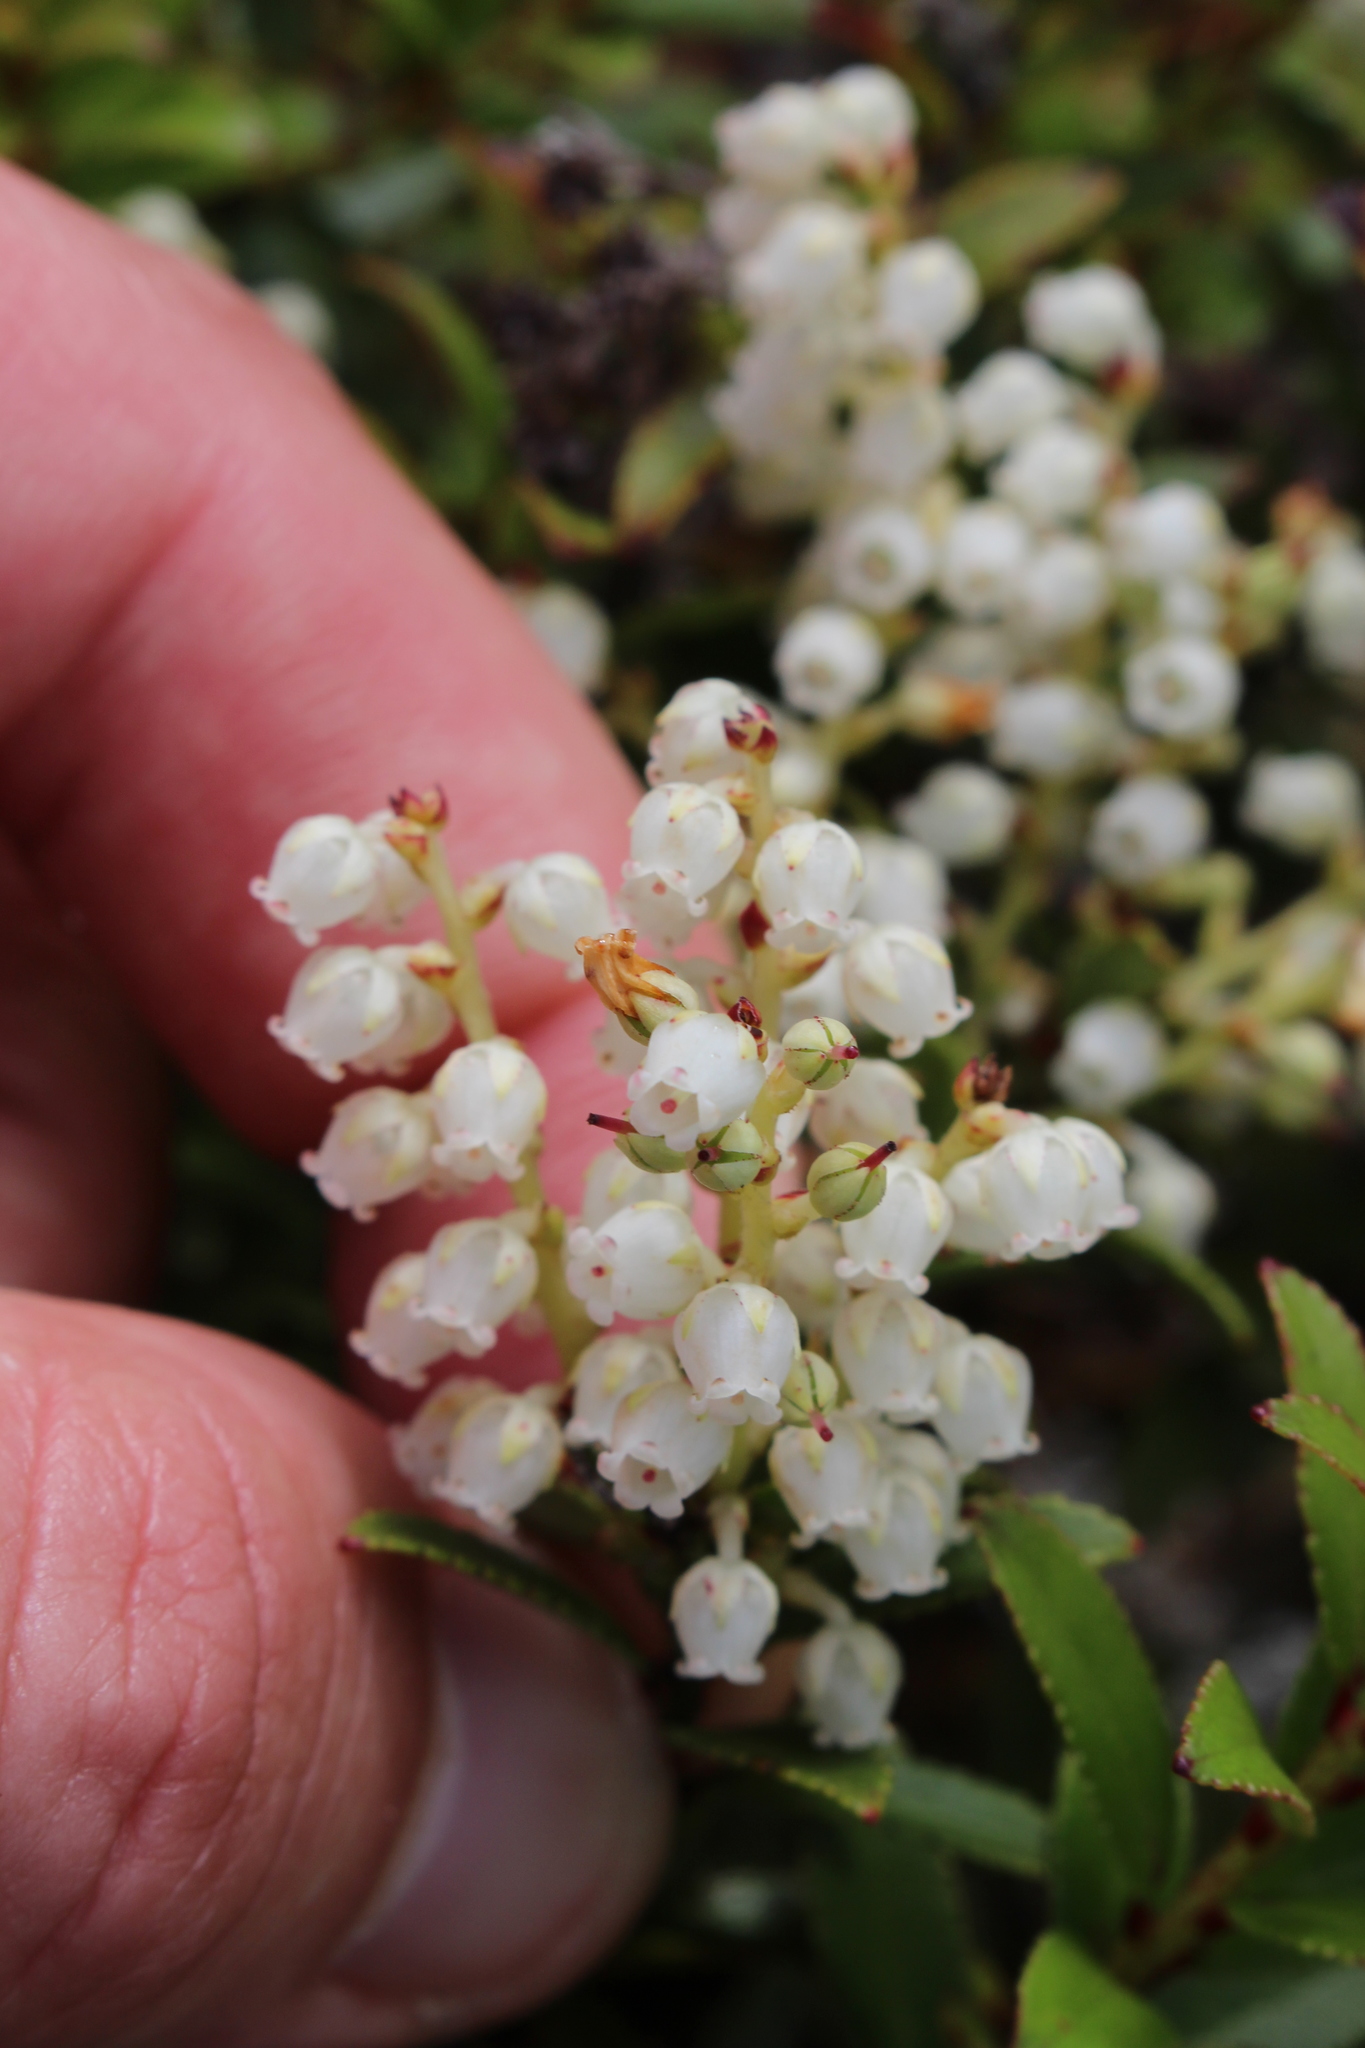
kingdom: Plantae
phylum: Tracheophyta
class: Magnoliopsida
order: Ericales
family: Ericaceae
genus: Gaultheria
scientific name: Gaultheria crassa
